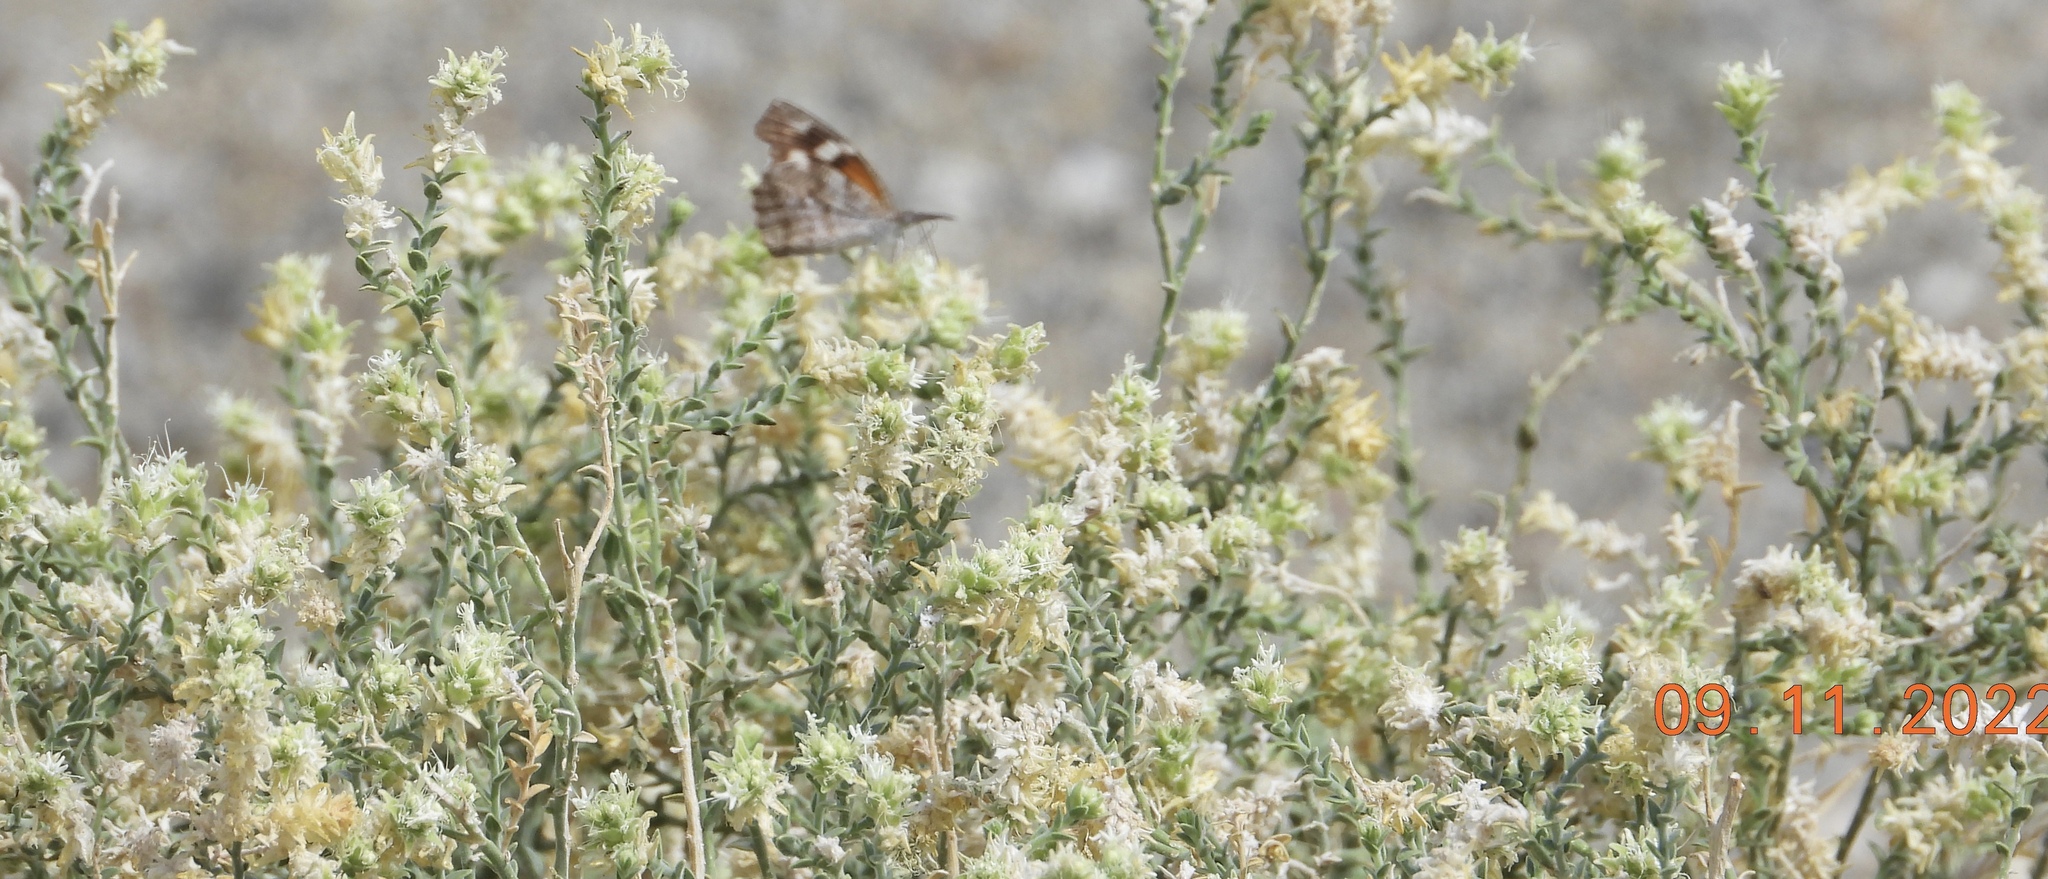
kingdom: Plantae
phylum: Tracheophyta
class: Magnoliopsida
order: Cornales
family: Loasaceae
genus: Petalonyx
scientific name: Petalonyx thurberi
